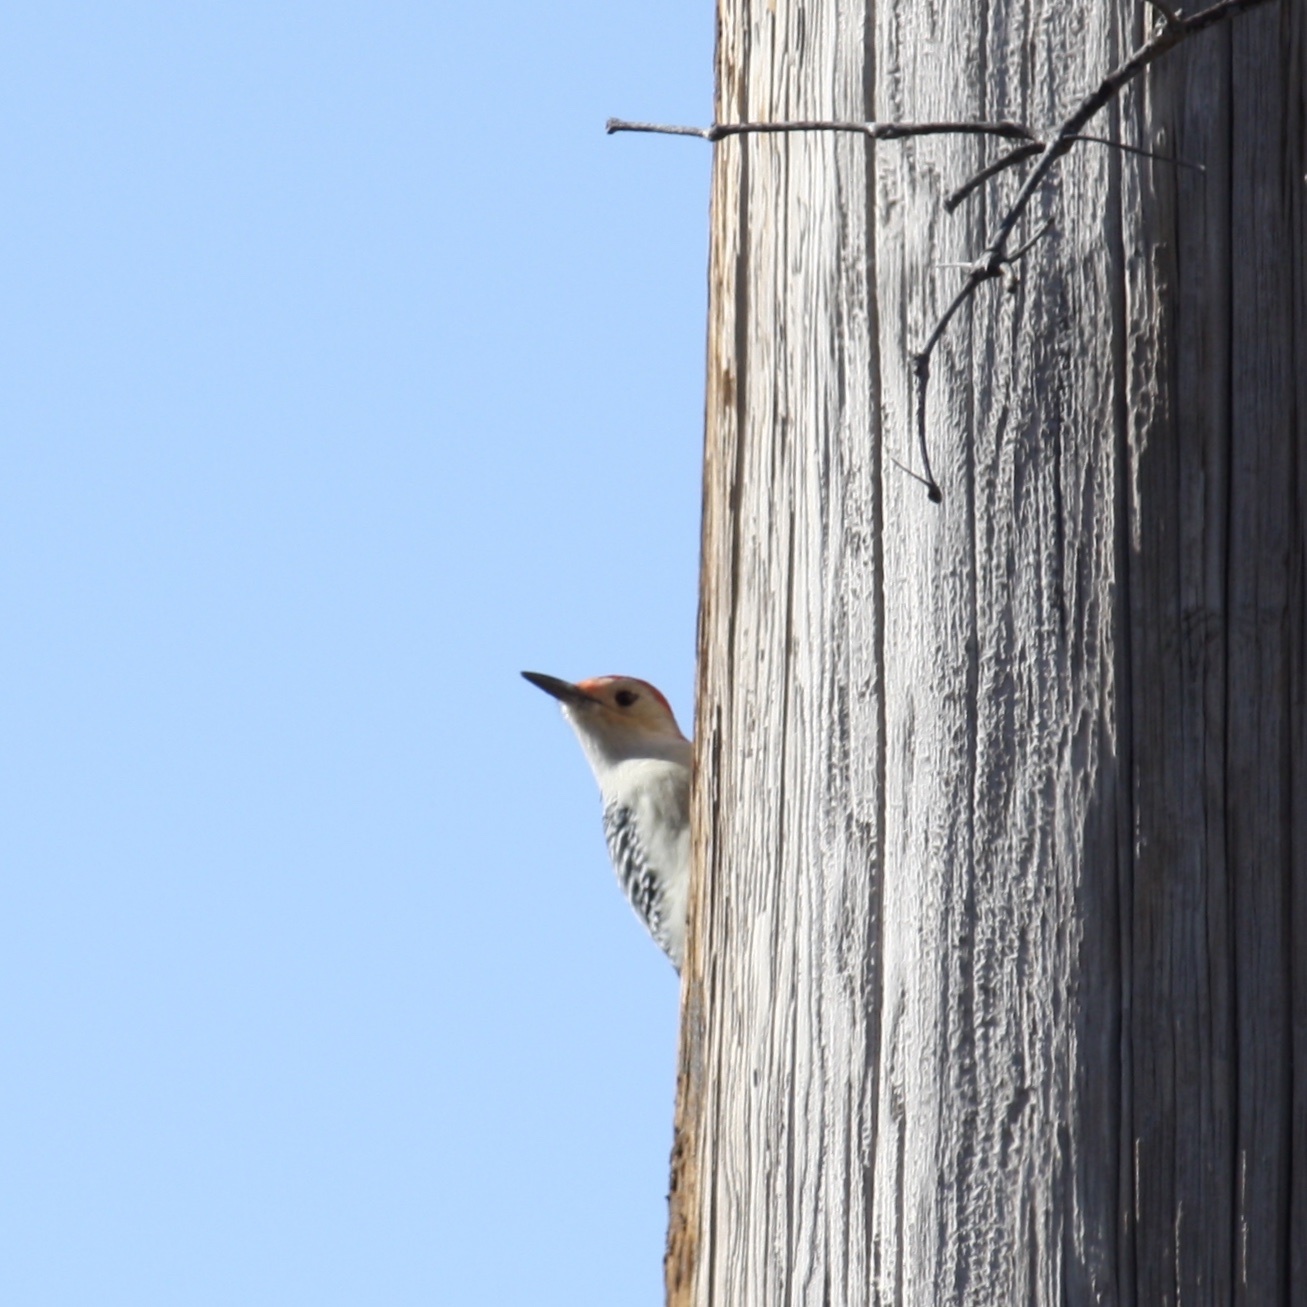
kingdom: Animalia
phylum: Chordata
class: Aves
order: Piciformes
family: Picidae
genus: Melanerpes
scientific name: Melanerpes carolinus
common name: Red-bellied woodpecker
